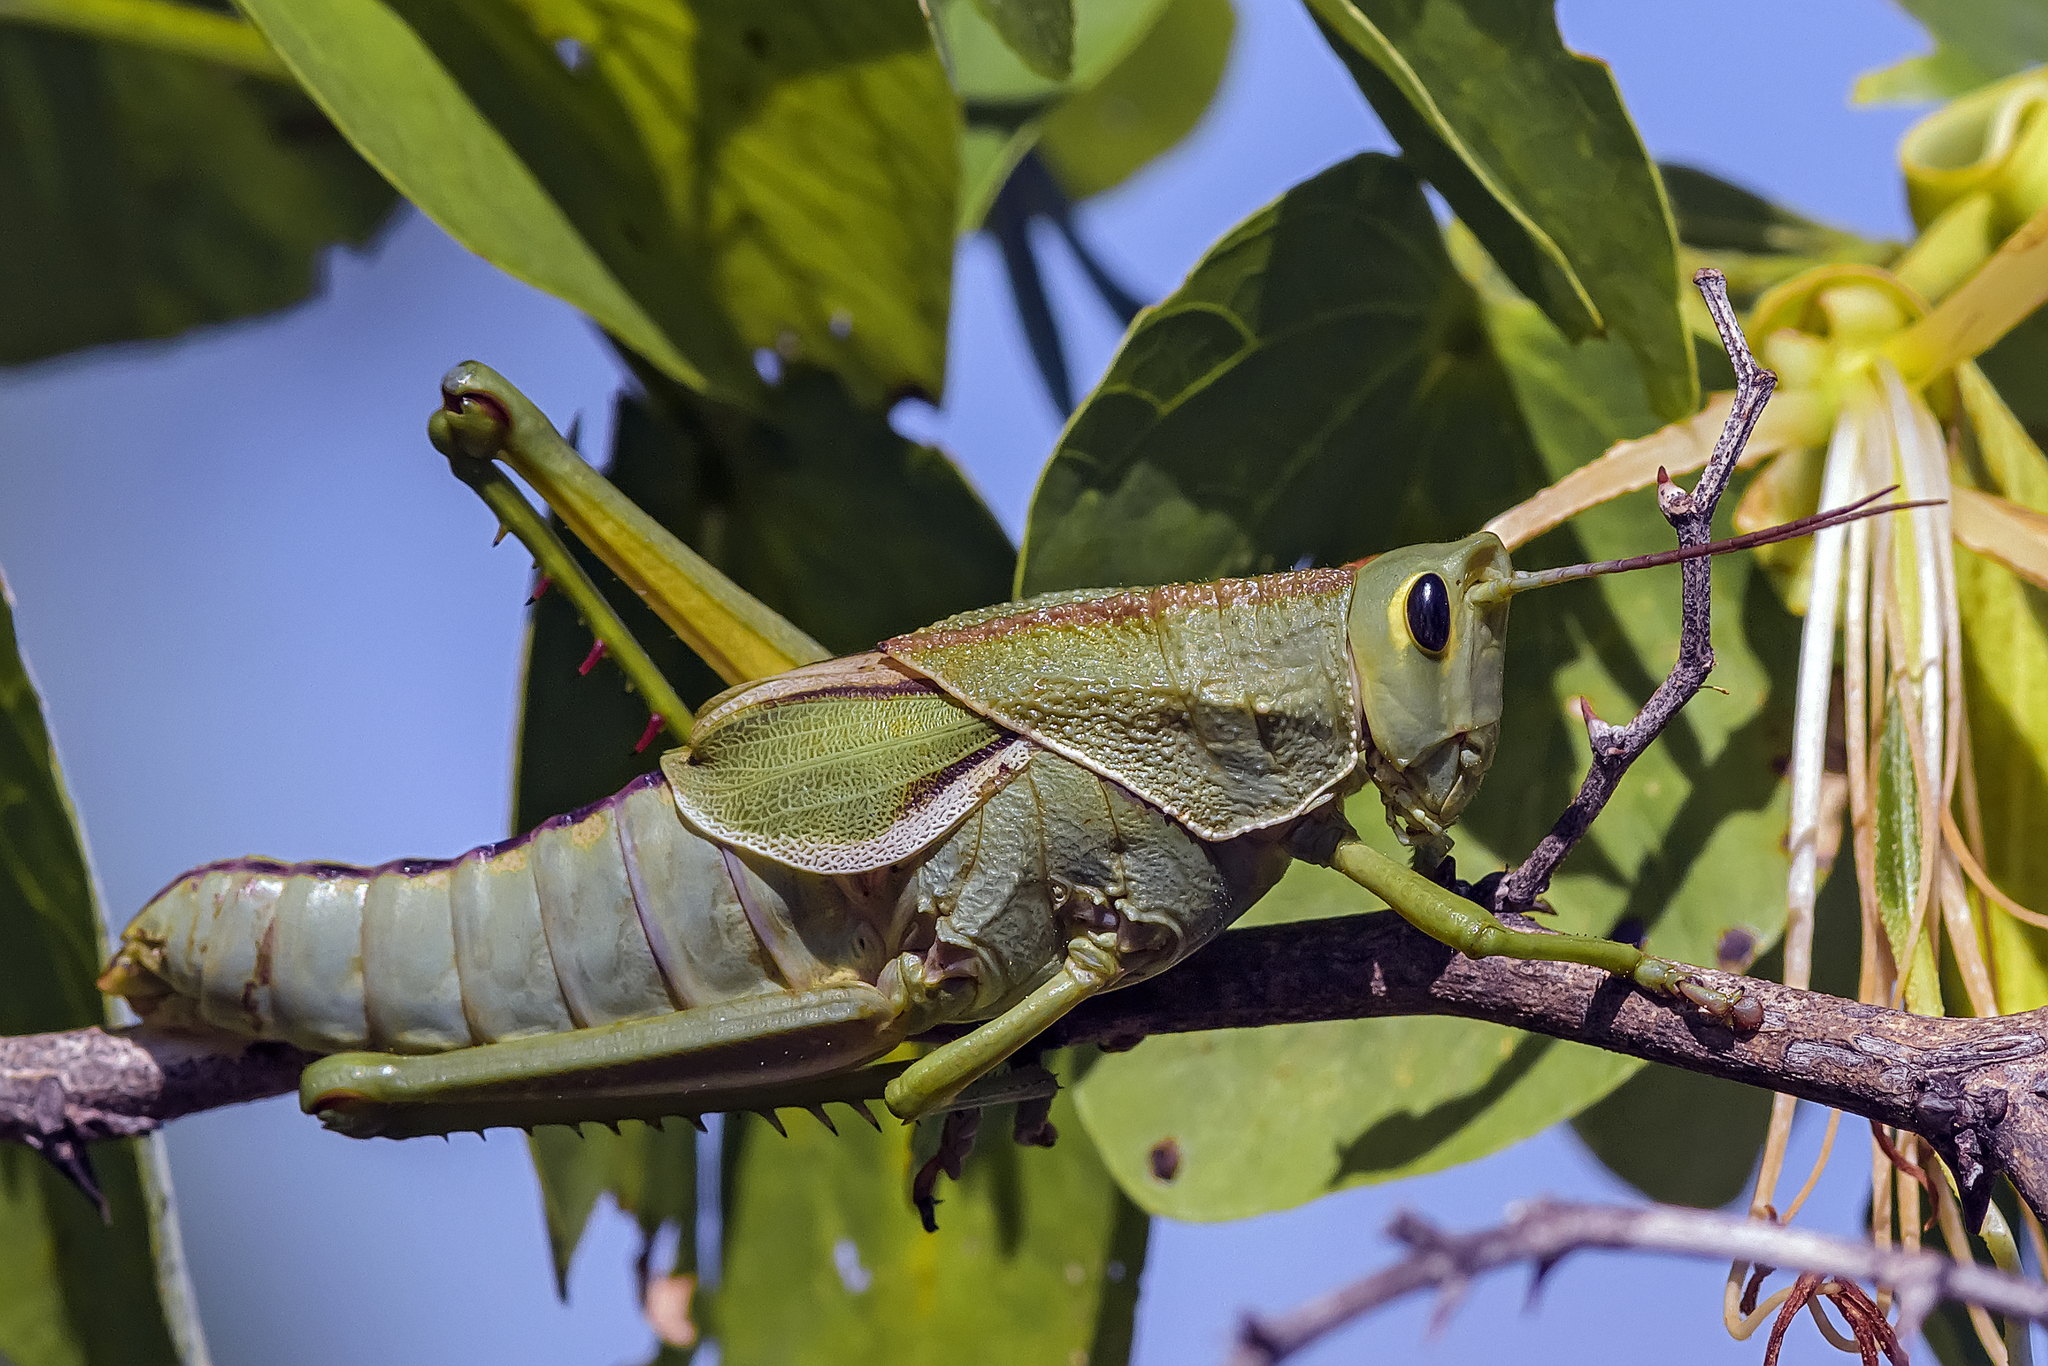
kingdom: Animalia
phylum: Arthropoda
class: Insecta
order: Orthoptera
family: Romaleidae
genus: Staleochlora
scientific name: Staleochlora viridicata
